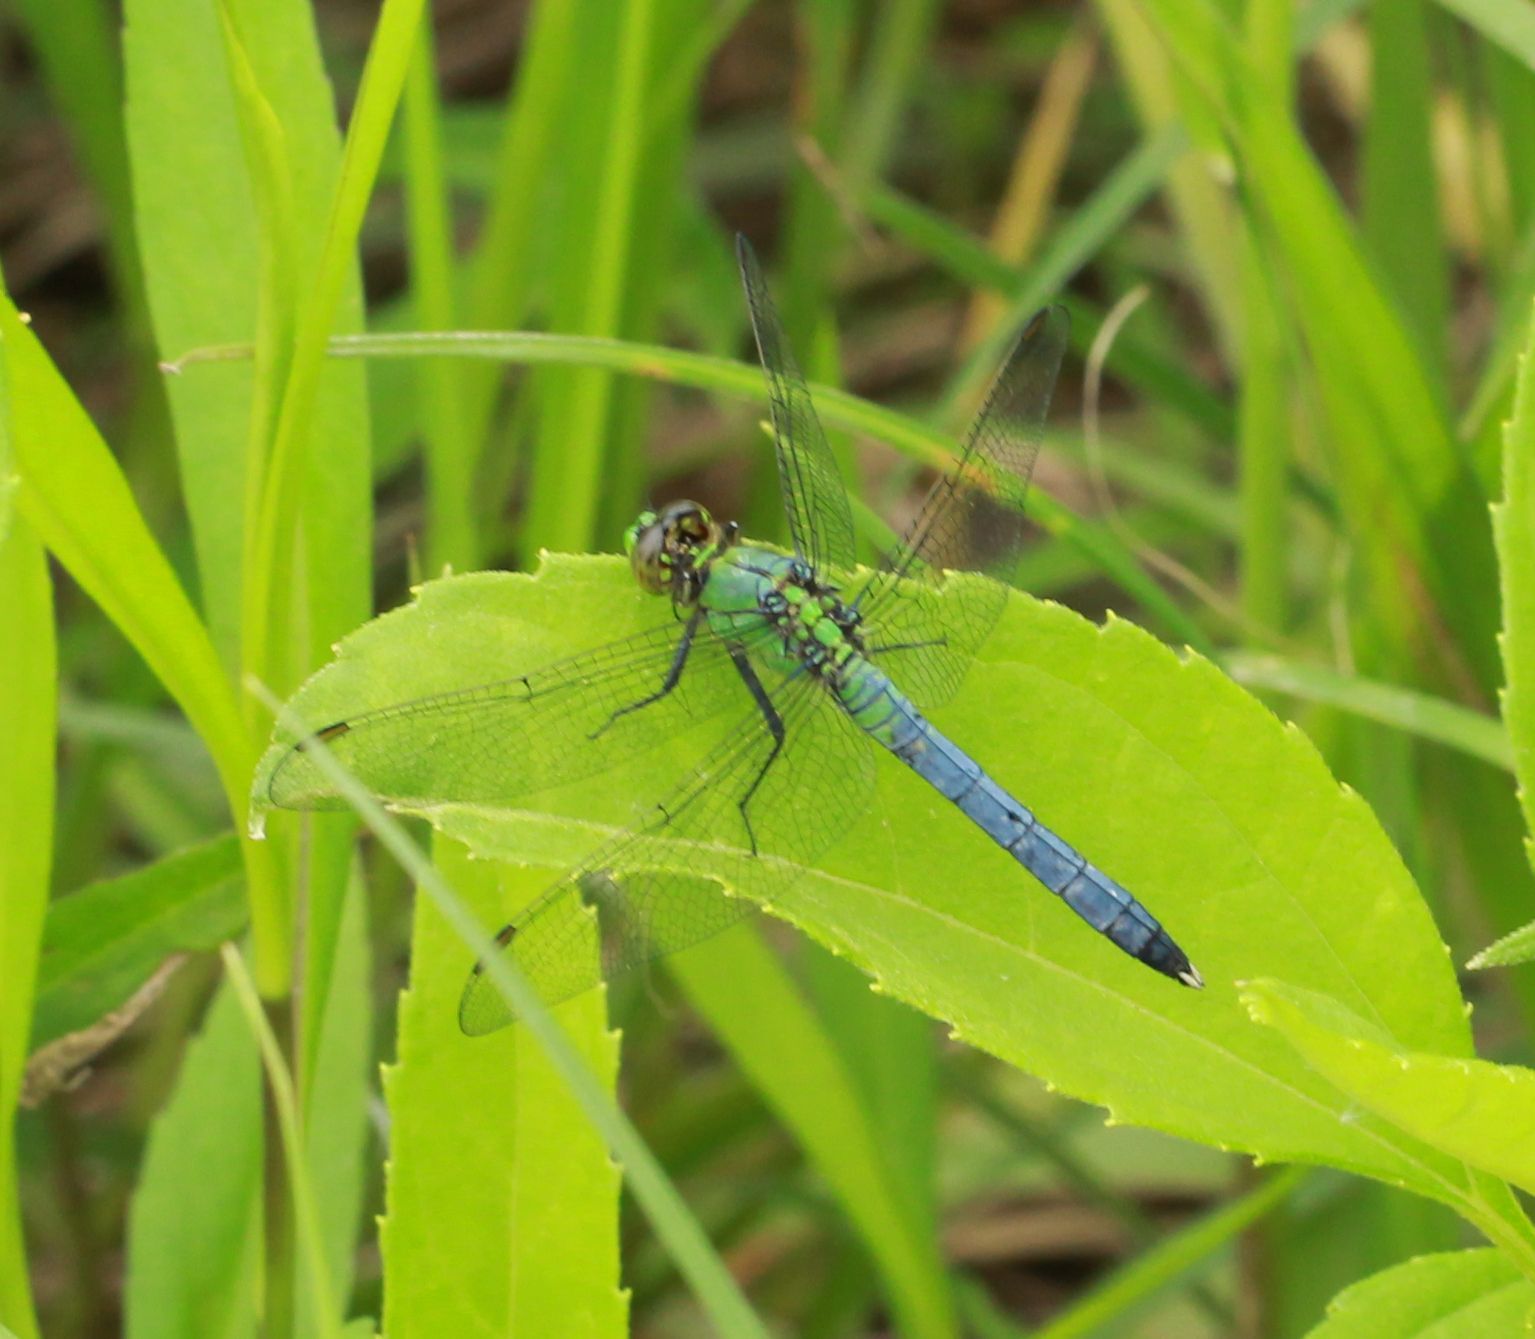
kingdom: Animalia
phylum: Arthropoda
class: Insecta
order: Odonata
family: Libellulidae
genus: Erythemis
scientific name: Erythemis simplicicollis
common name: Eastern pondhawk
